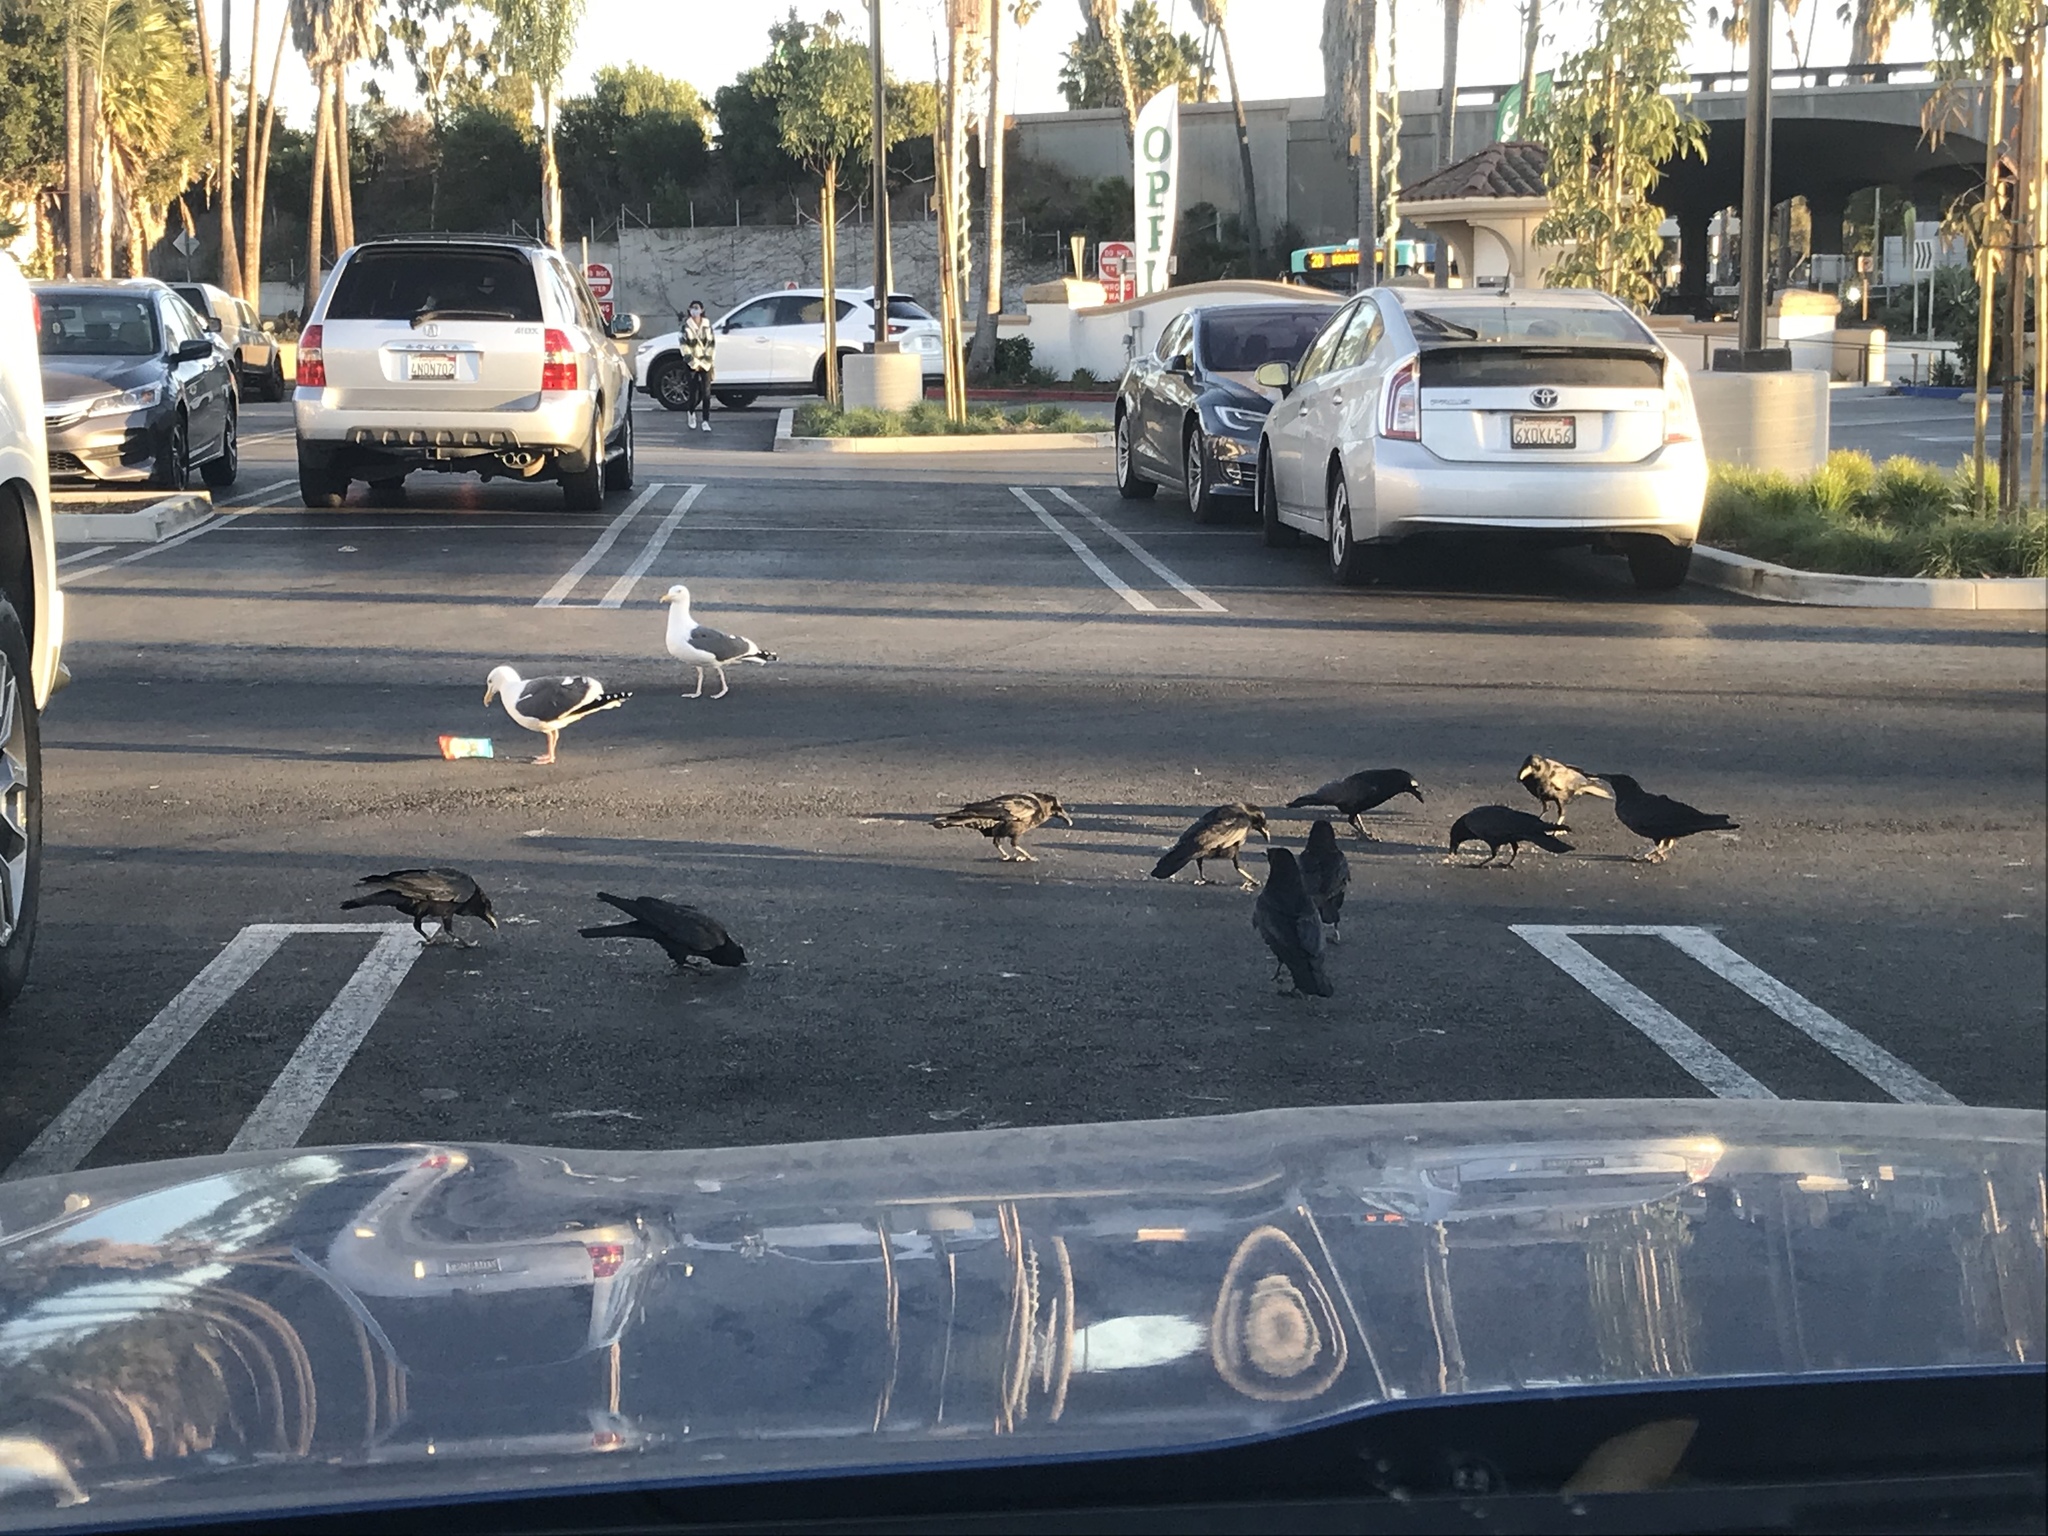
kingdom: Animalia
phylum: Chordata
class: Aves
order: Charadriiformes
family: Laridae
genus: Larus
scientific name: Larus occidentalis
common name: Western gull
